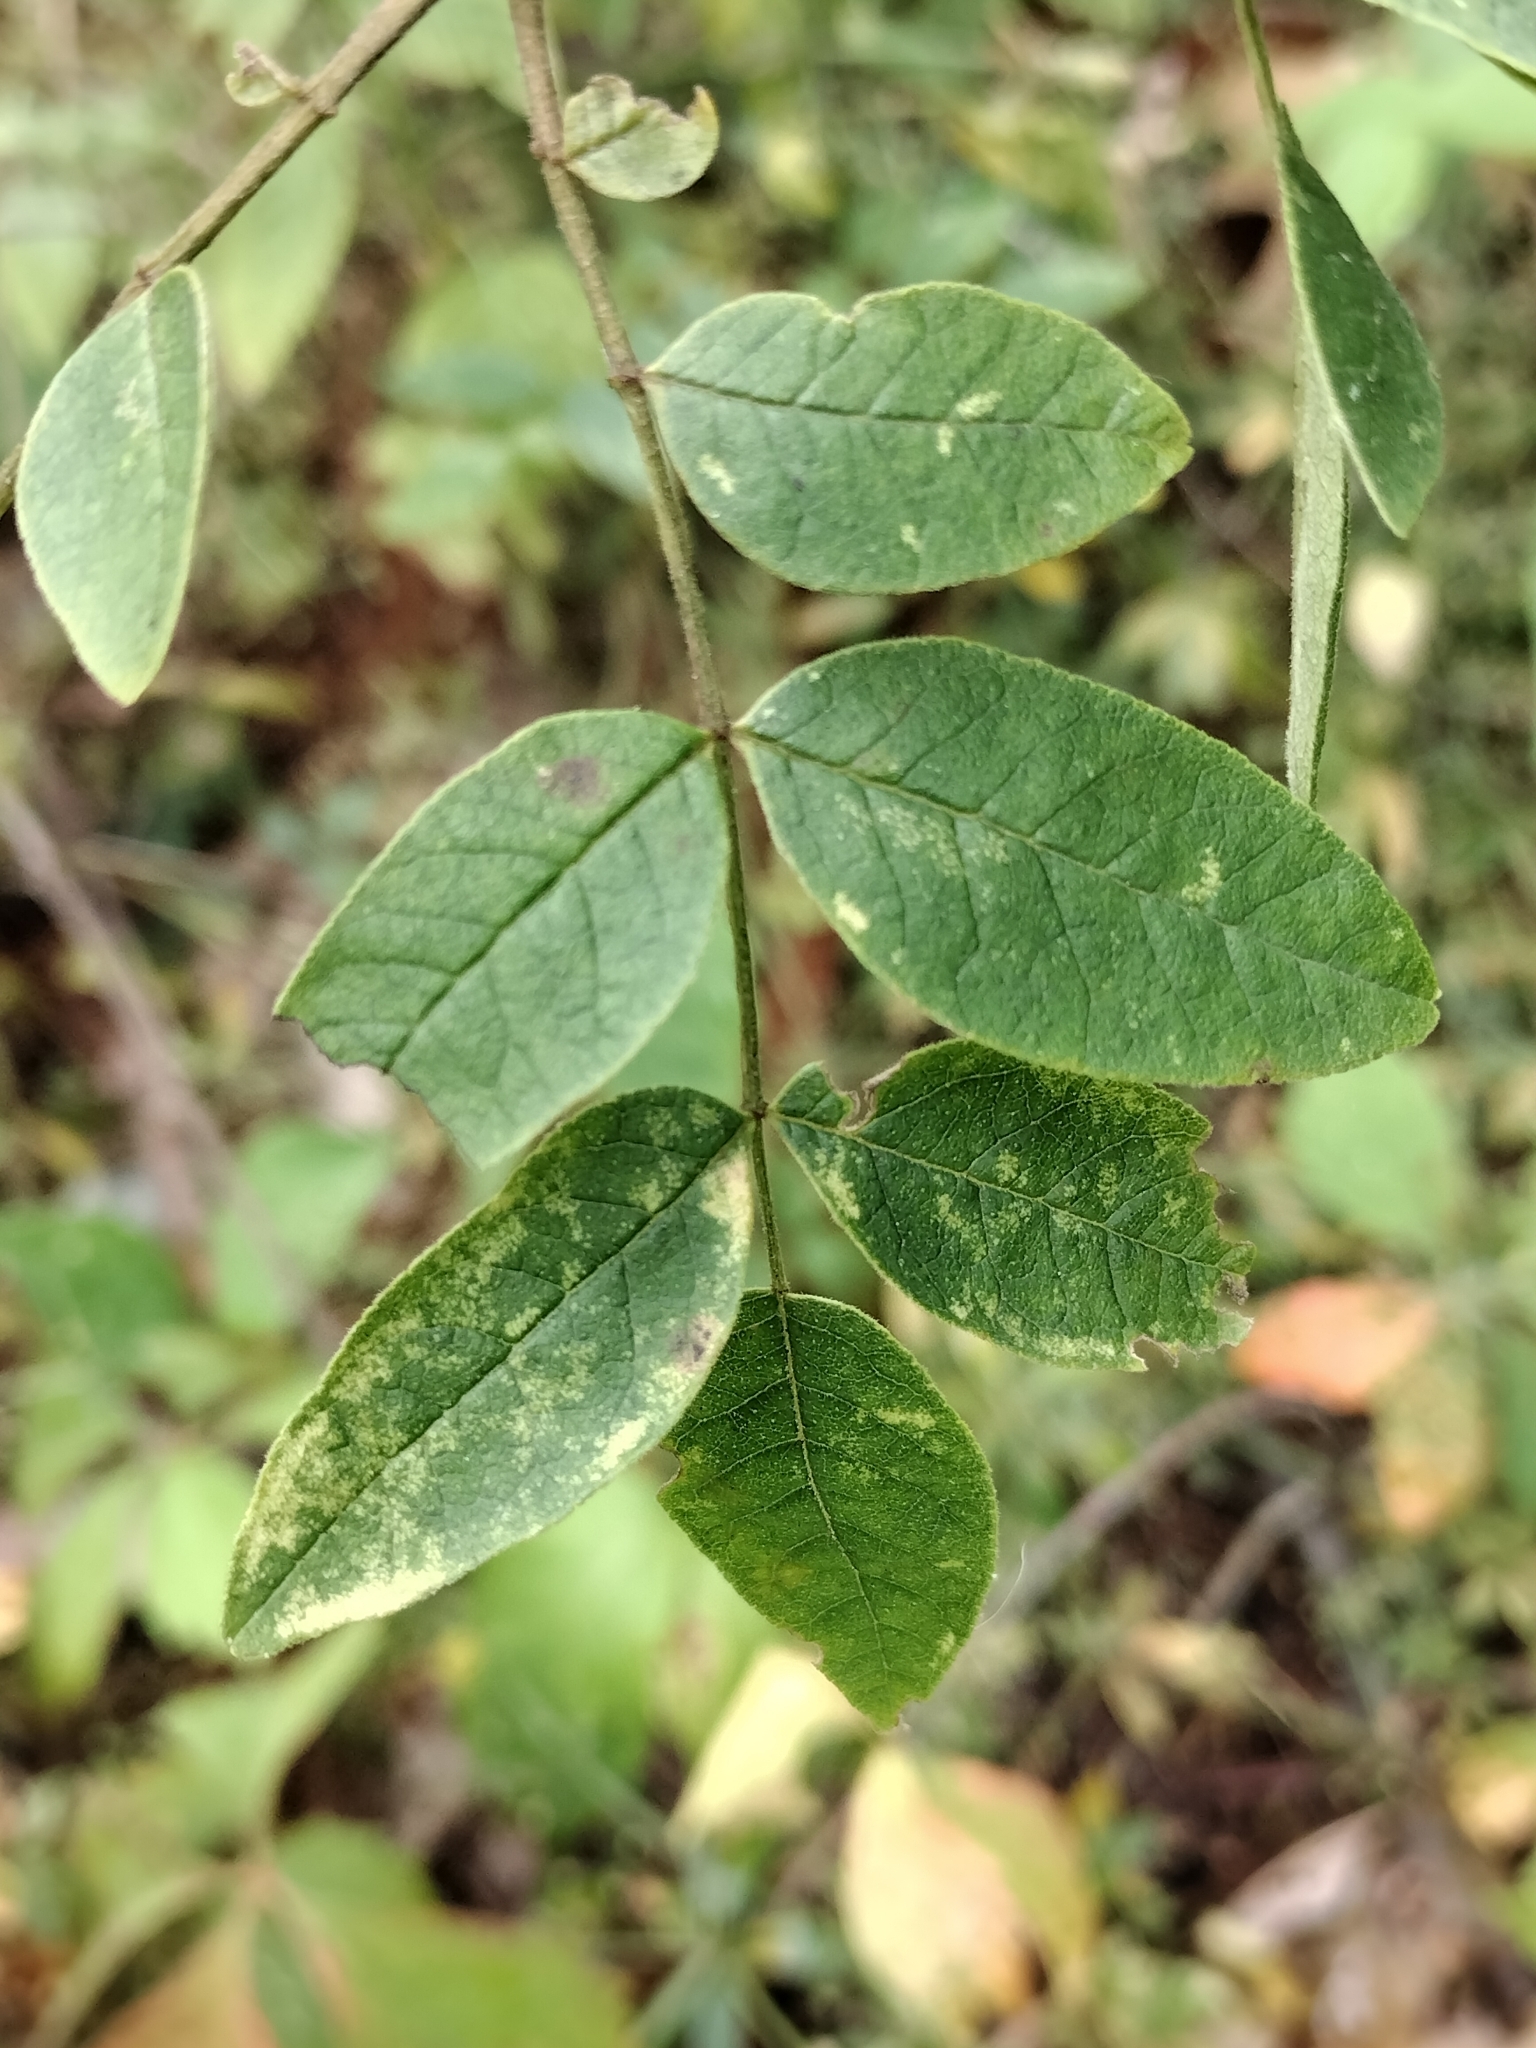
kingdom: Plantae
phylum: Tracheophyta
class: Magnoliopsida
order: Sapindales
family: Rutaceae
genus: Zanthoxylum
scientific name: Zanthoxylum americanum
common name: Northern prickly-ash
